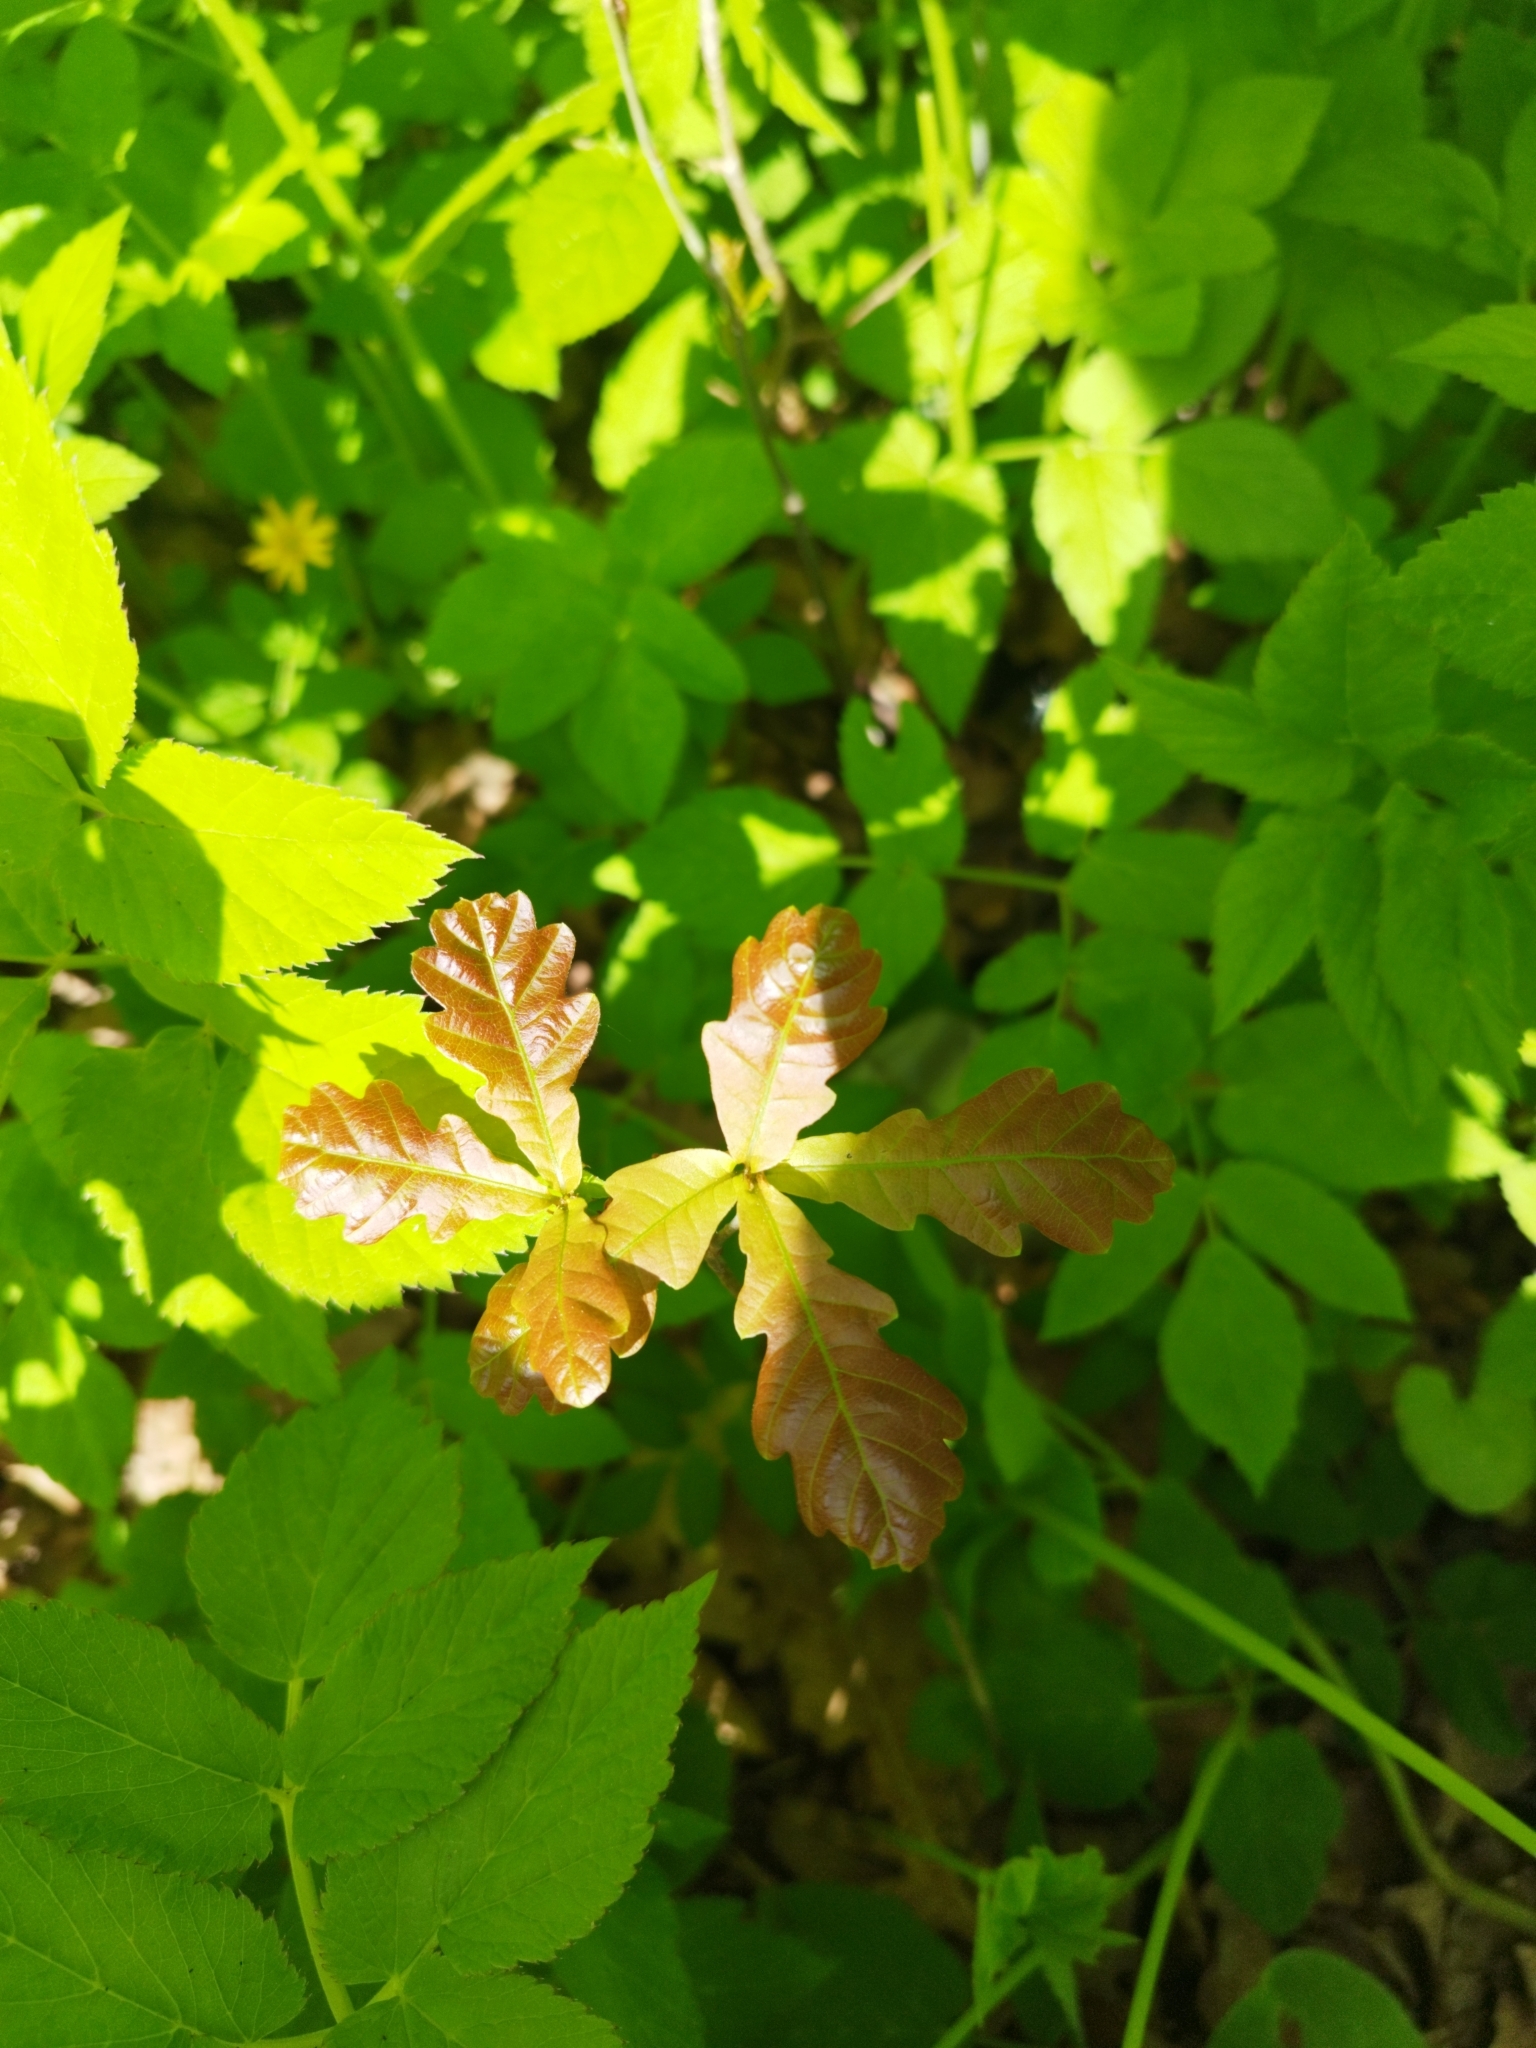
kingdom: Plantae
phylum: Tracheophyta
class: Magnoliopsida
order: Fagales
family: Fagaceae
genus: Quercus
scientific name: Quercus robur
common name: Pedunculate oak
